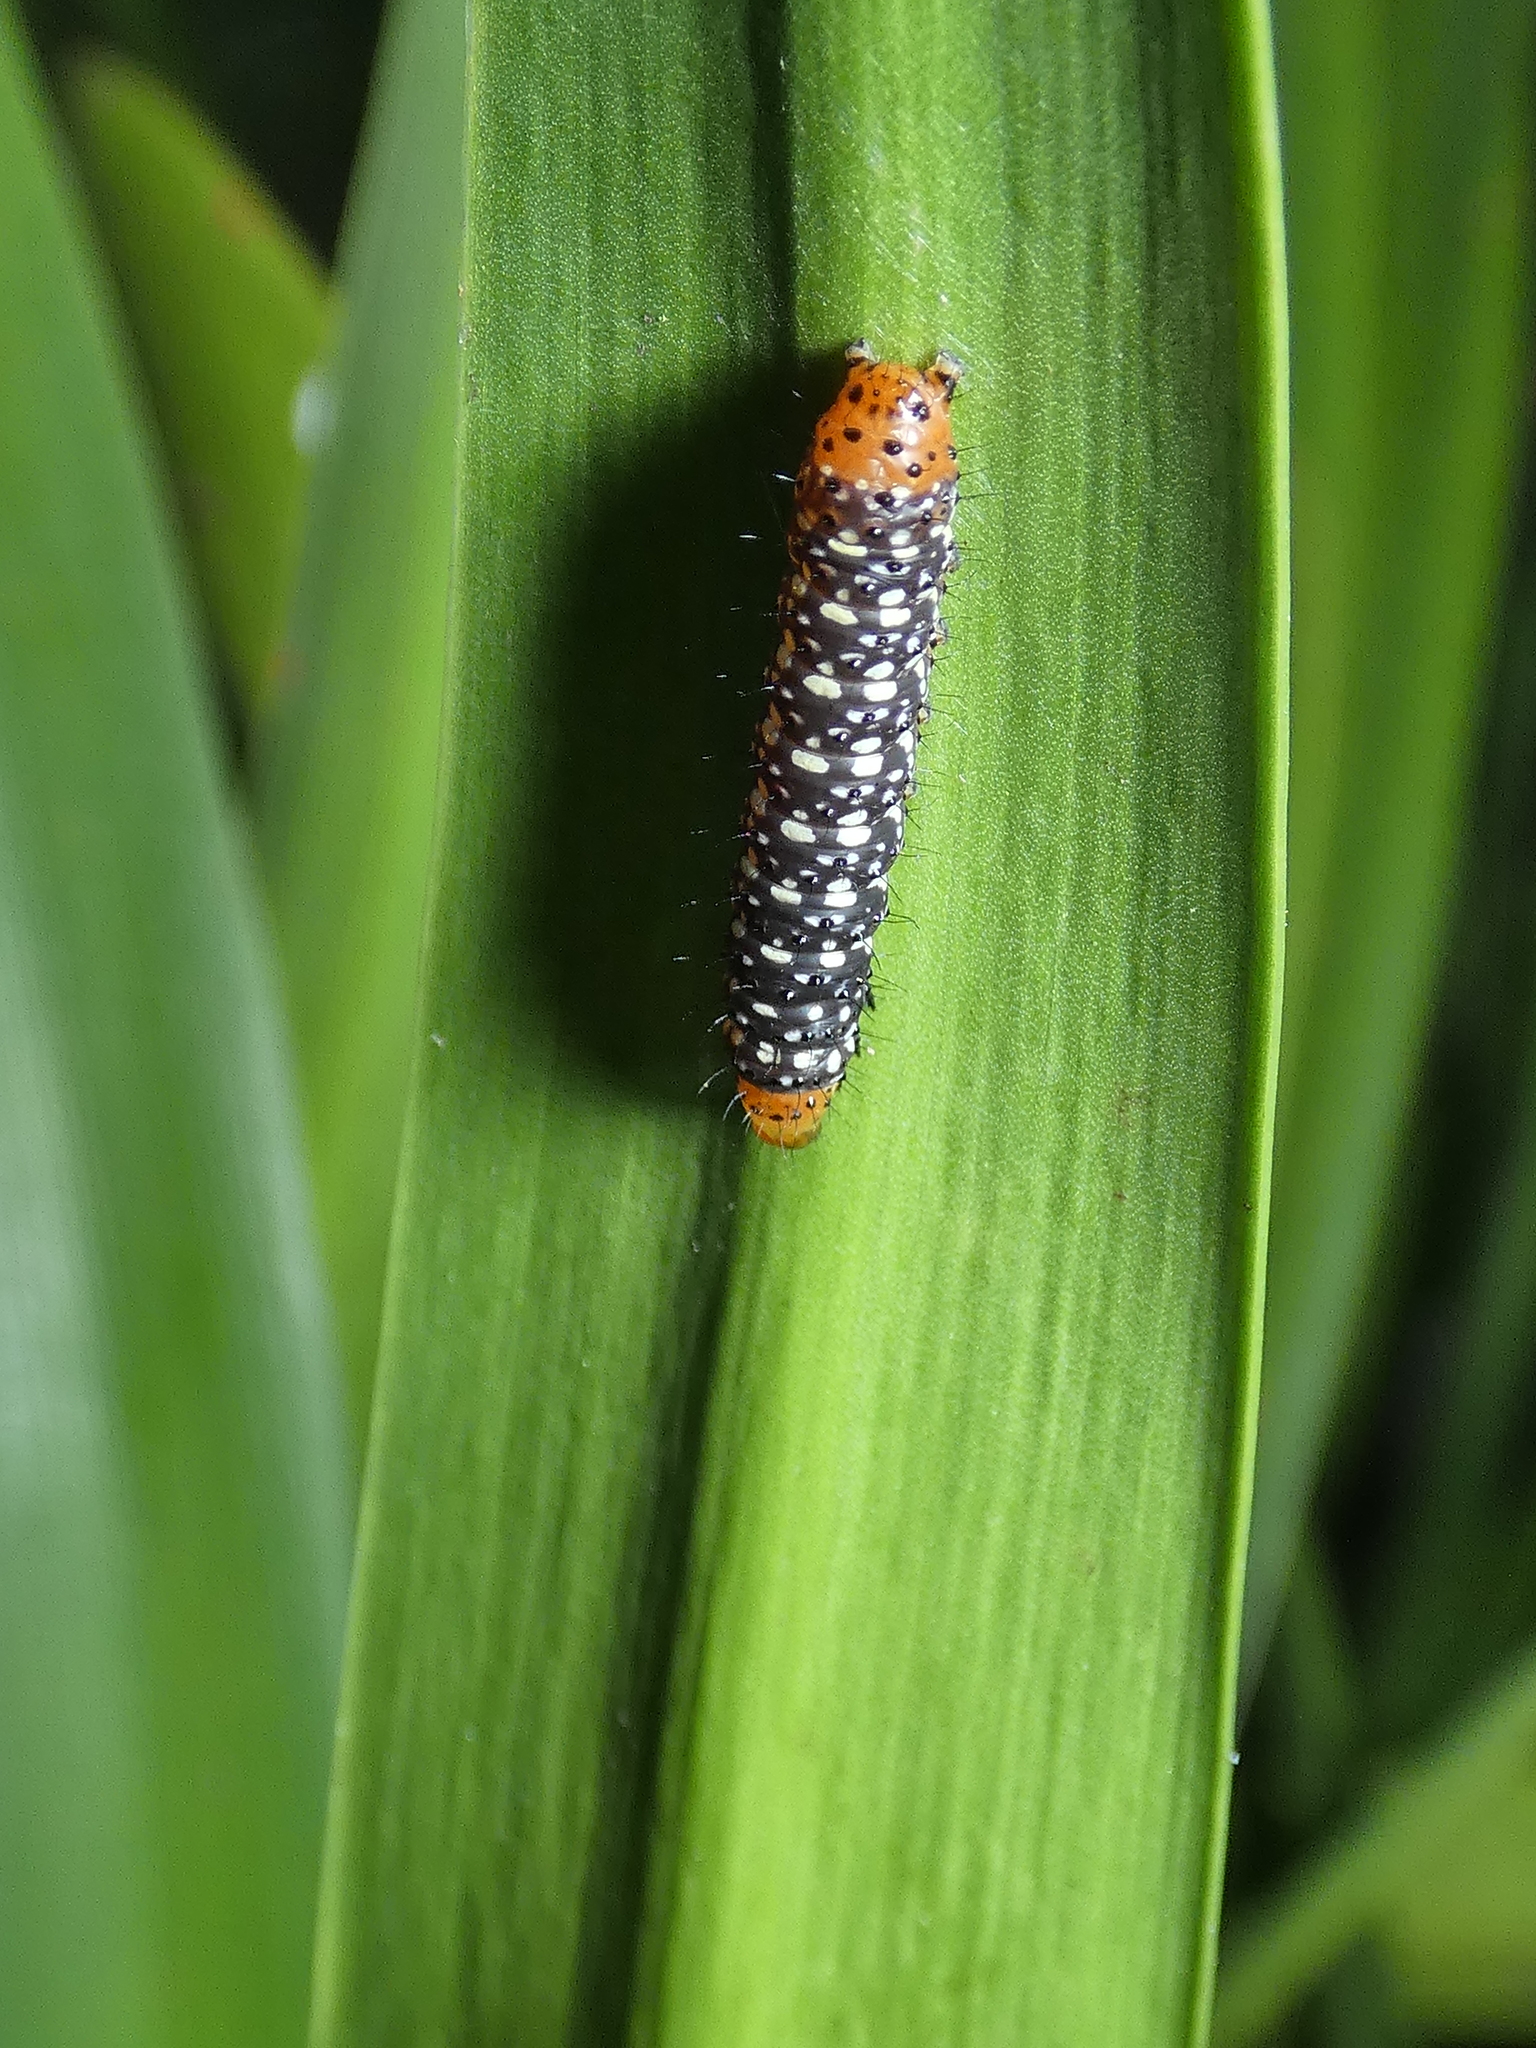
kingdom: Animalia
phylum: Arthropoda
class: Insecta
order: Lepidoptera
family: Noctuidae
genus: Xanthopastis
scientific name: Xanthopastis timais
